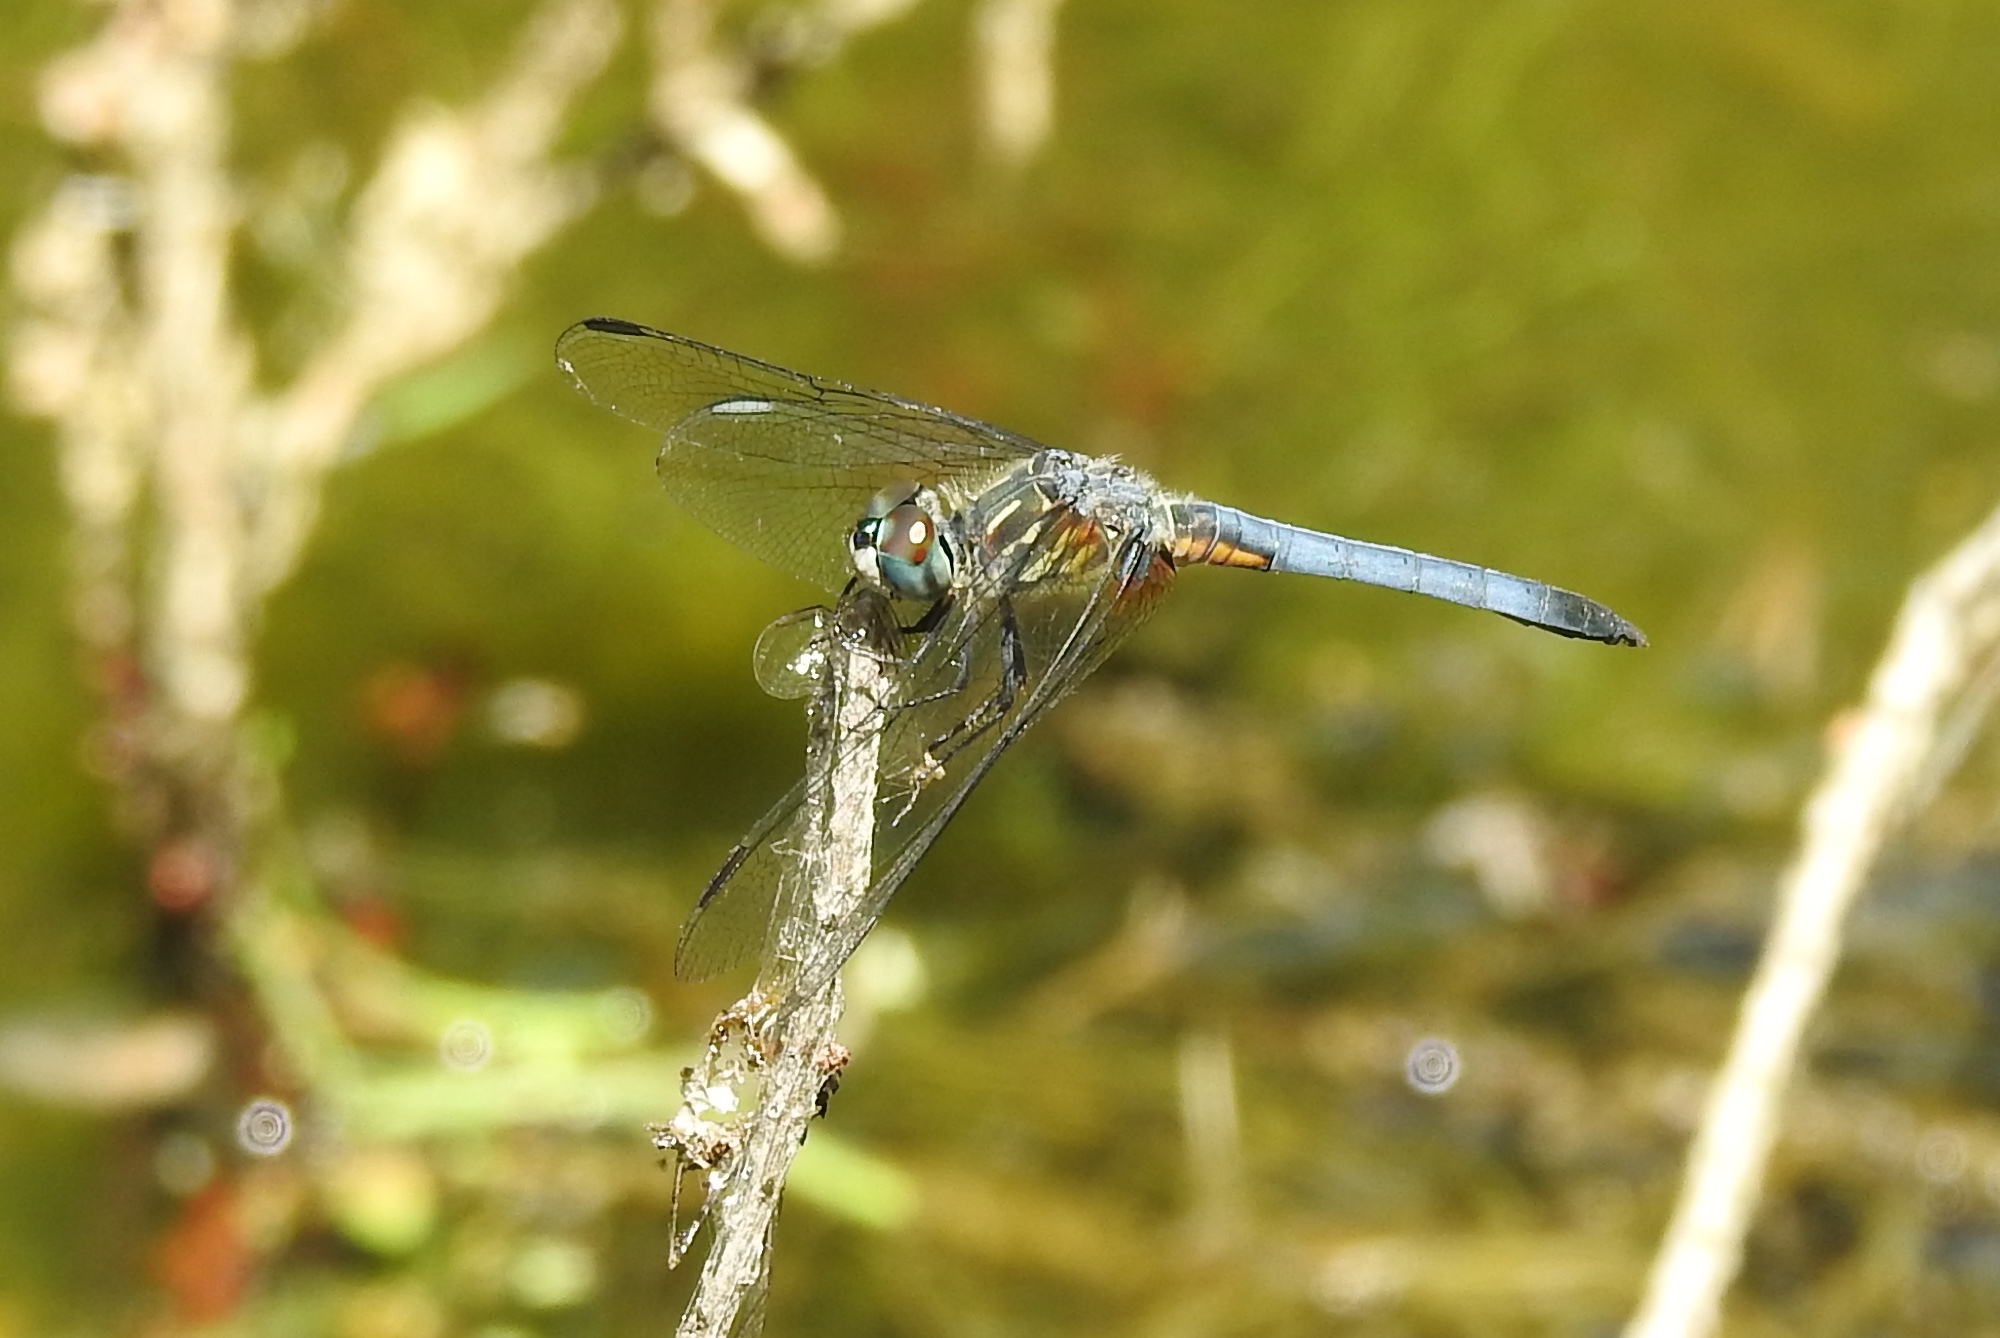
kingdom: Animalia
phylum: Arthropoda
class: Insecta
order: Odonata
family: Libellulidae
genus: Pachydiplax
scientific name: Pachydiplax longipennis
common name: Blue dasher
